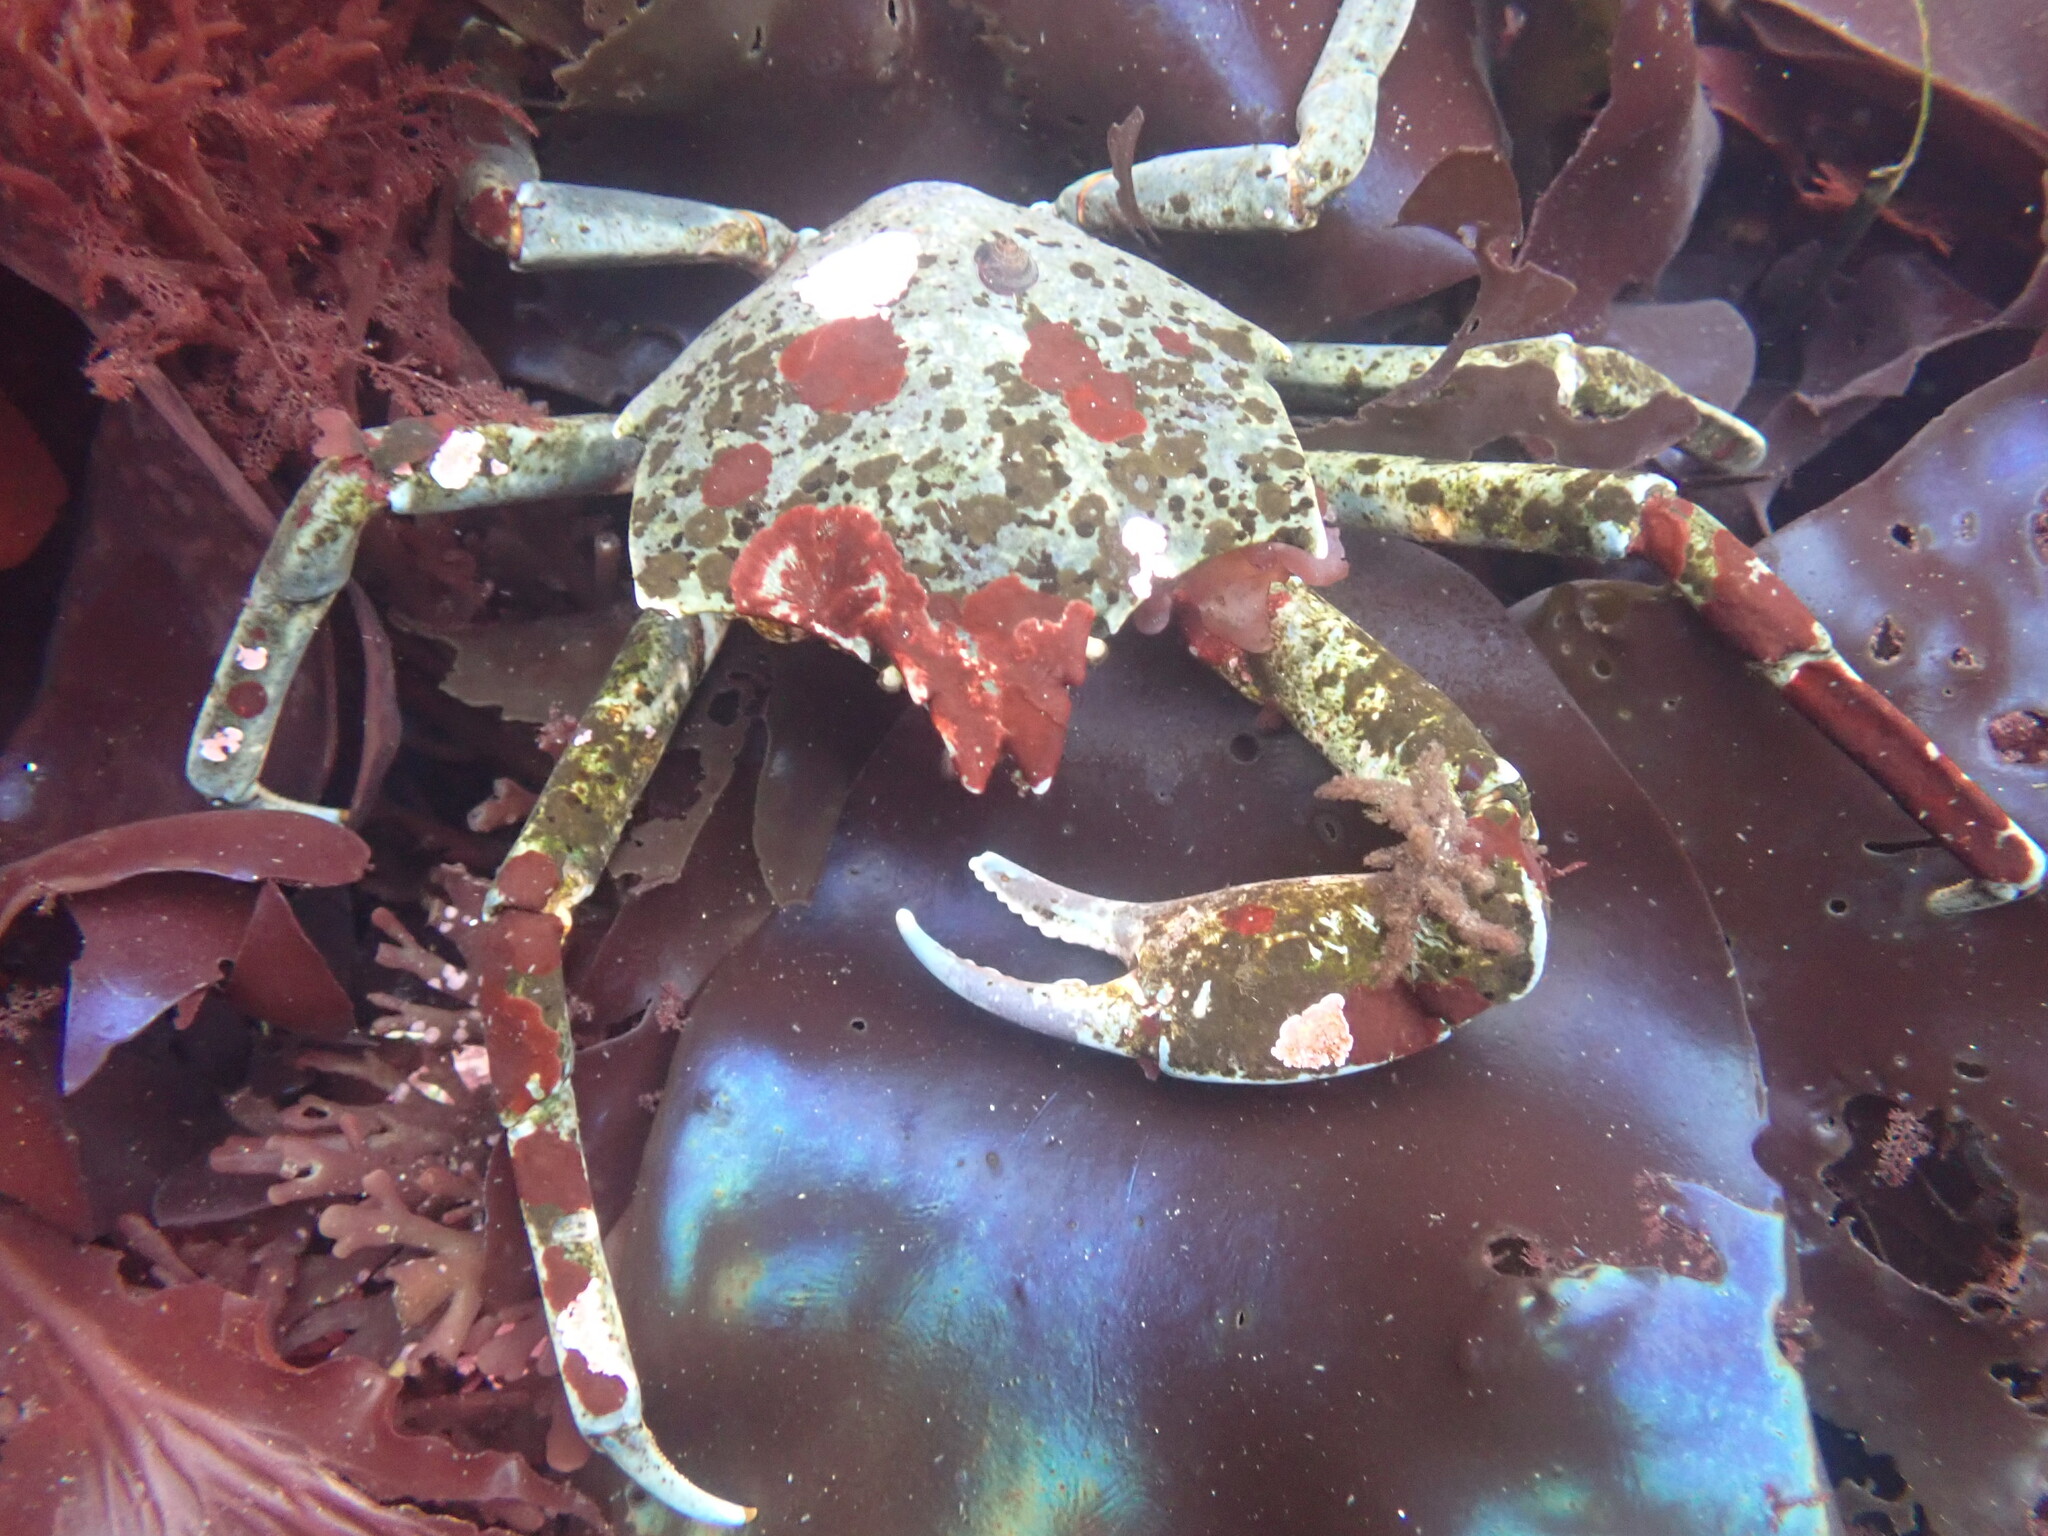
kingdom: Animalia
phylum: Arthropoda
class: Malacostraca
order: Decapoda
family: Epialtidae
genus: Pugettia
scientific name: Pugettia producta
